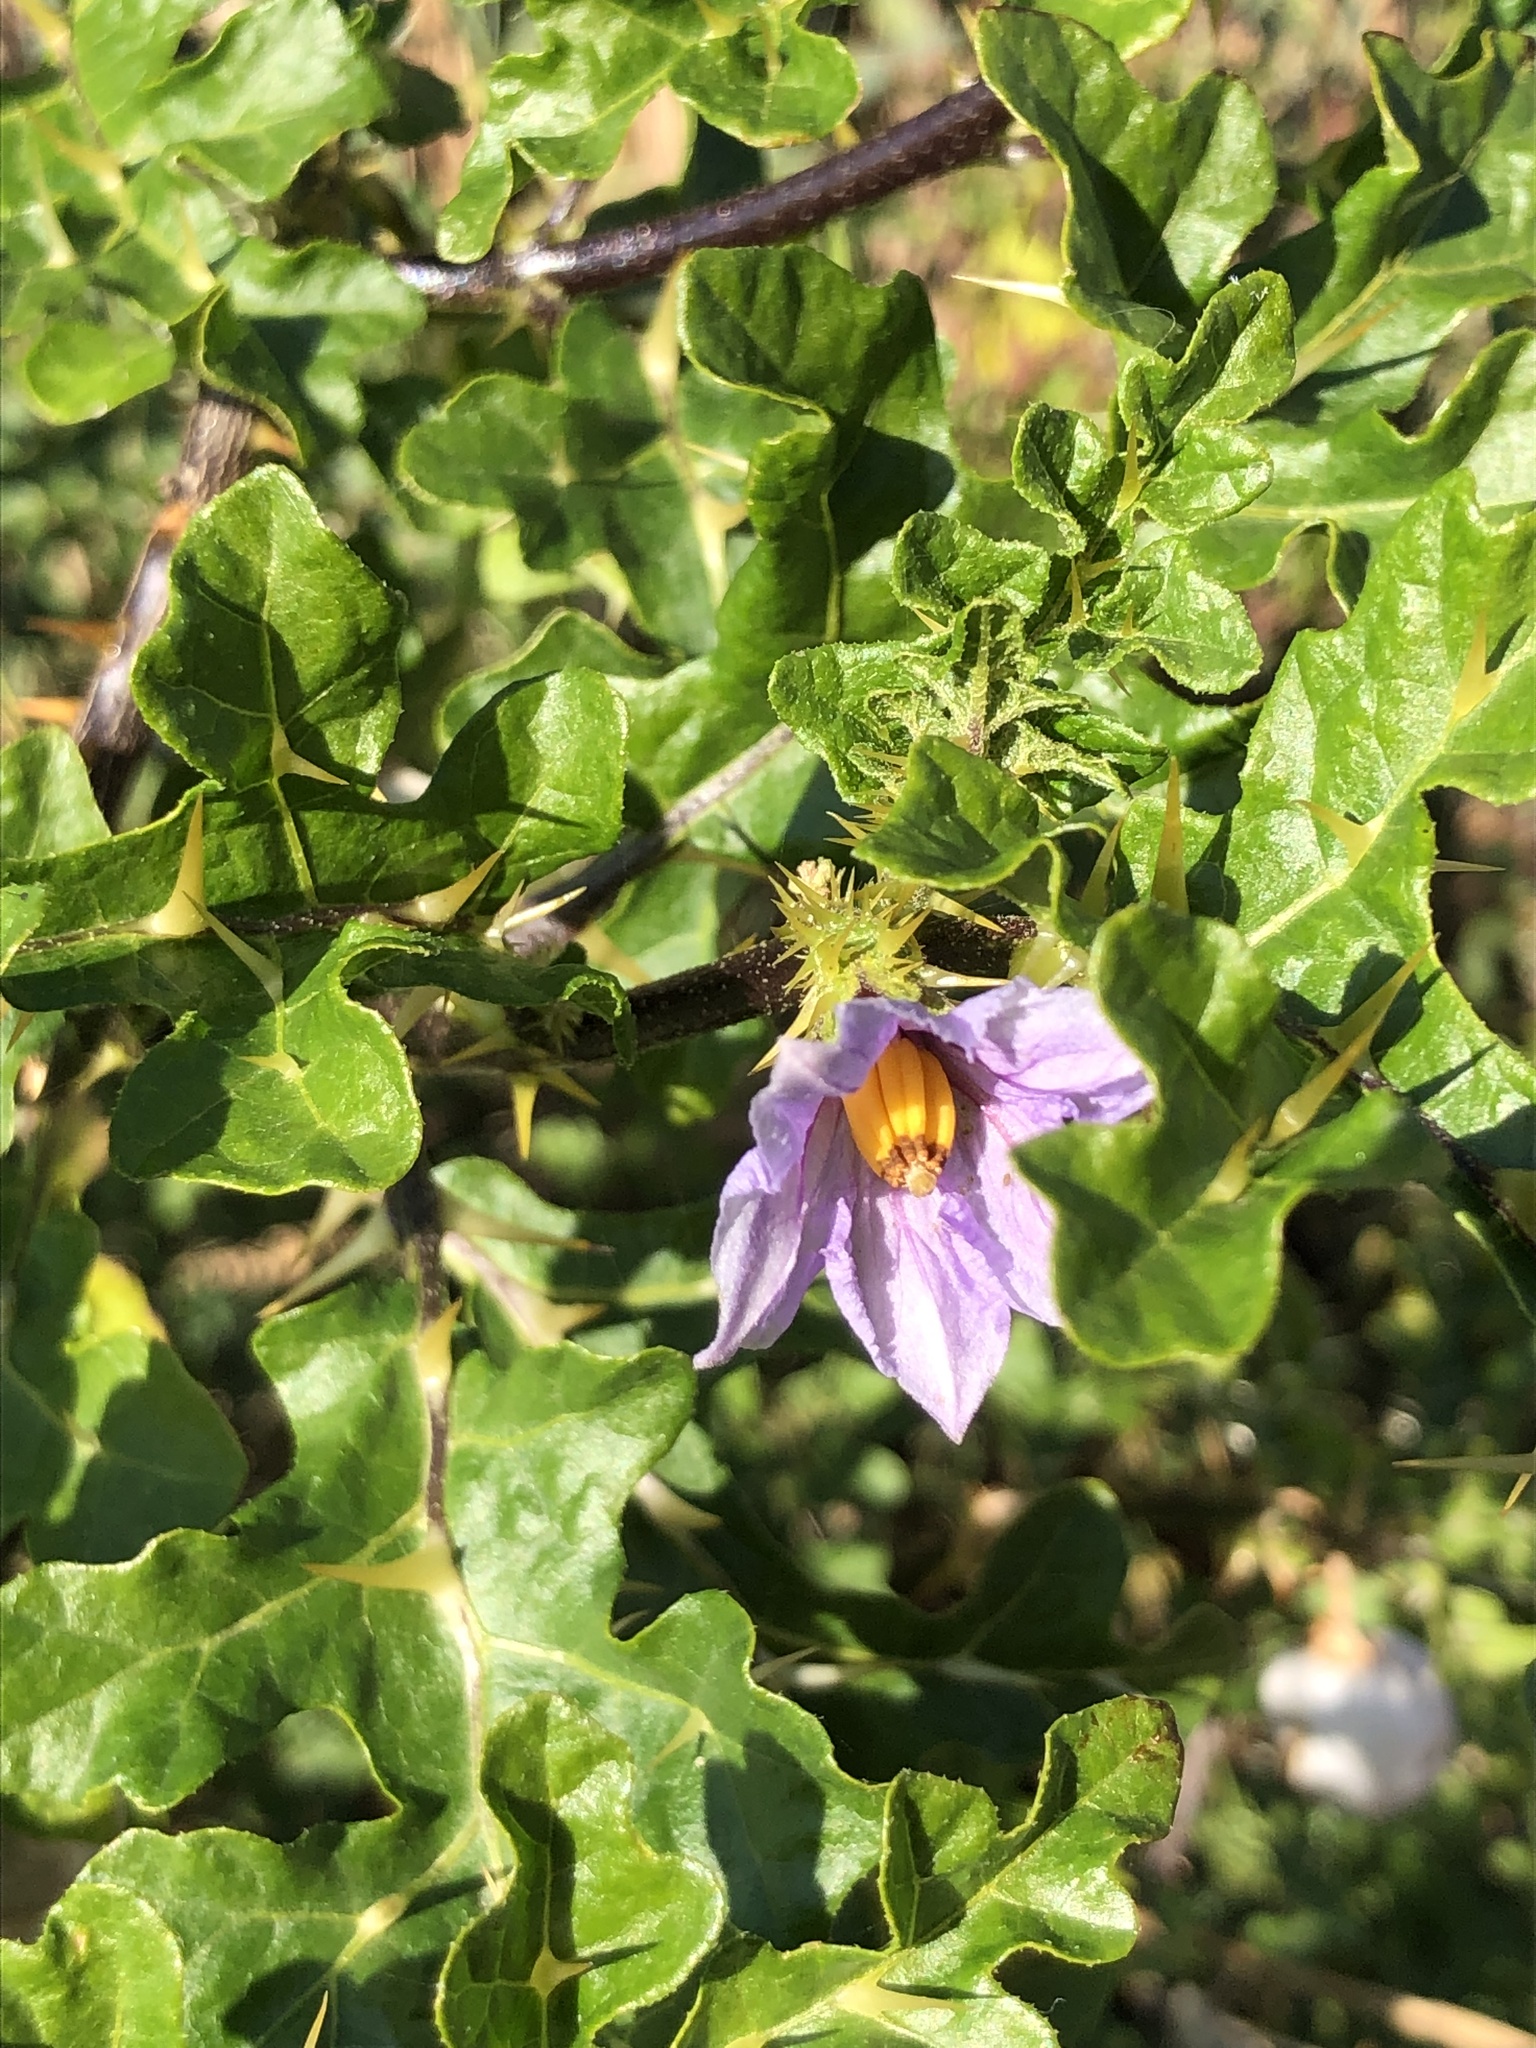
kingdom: Plantae
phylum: Tracheophyta
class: Magnoliopsida
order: Solanales
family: Solanaceae
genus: Solanum
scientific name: Solanum linnaeanum
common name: Nightshade
